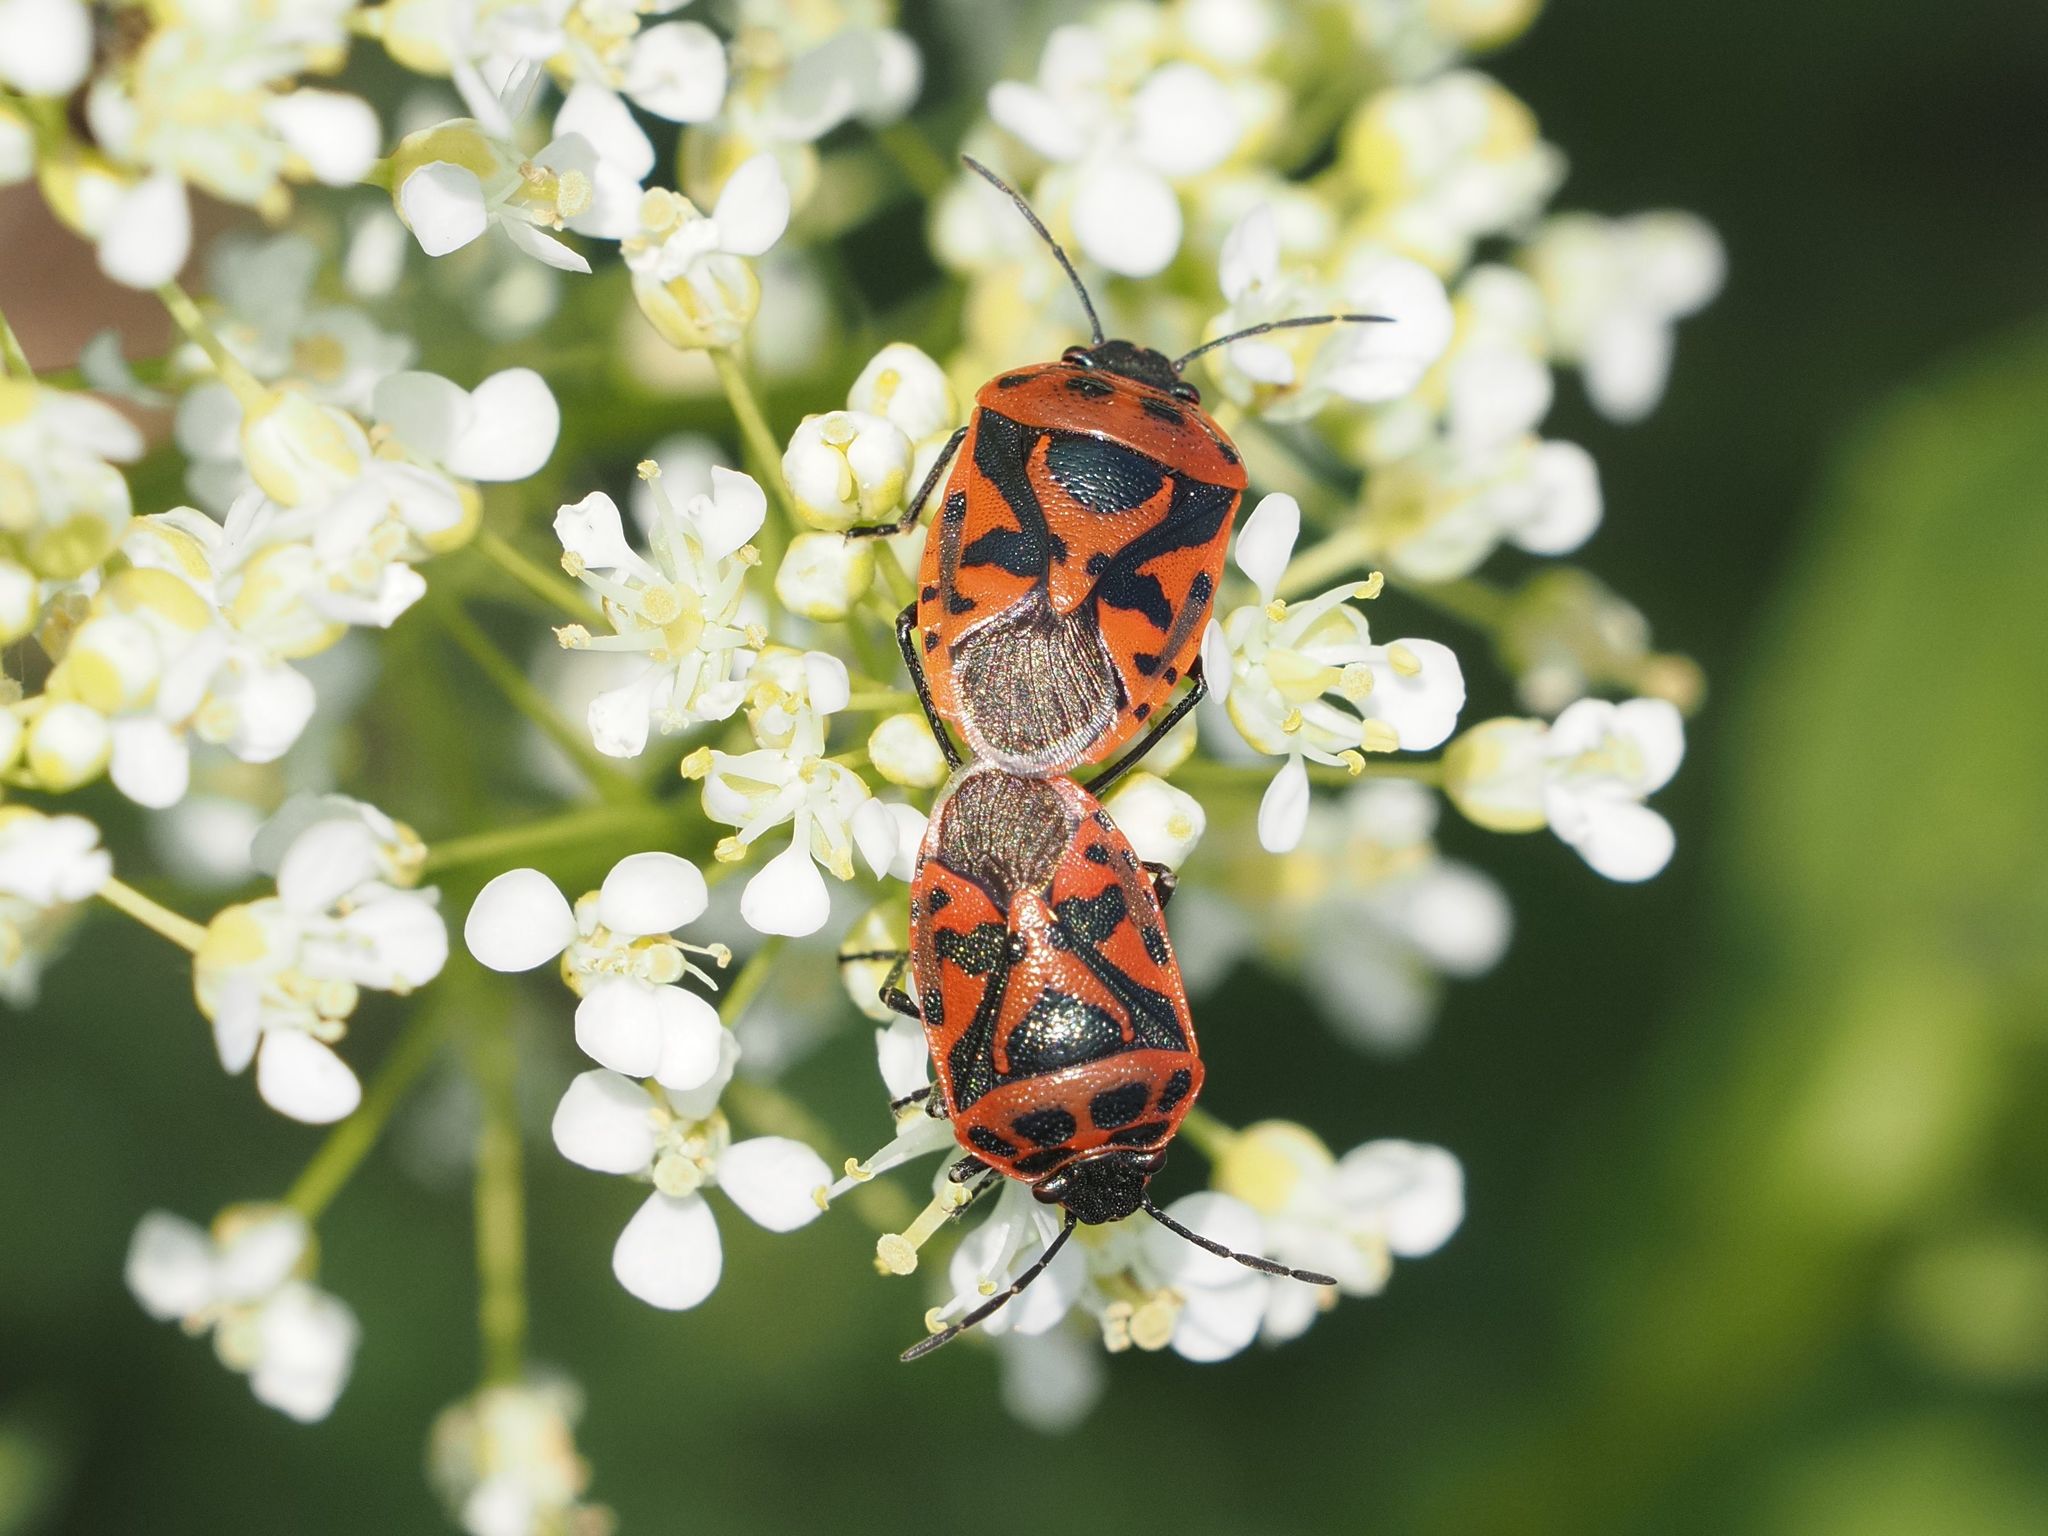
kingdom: Animalia
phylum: Arthropoda
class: Insecta
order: Hemiptera
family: Pentatomidae
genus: Eurydema
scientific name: Eurydema ornata
